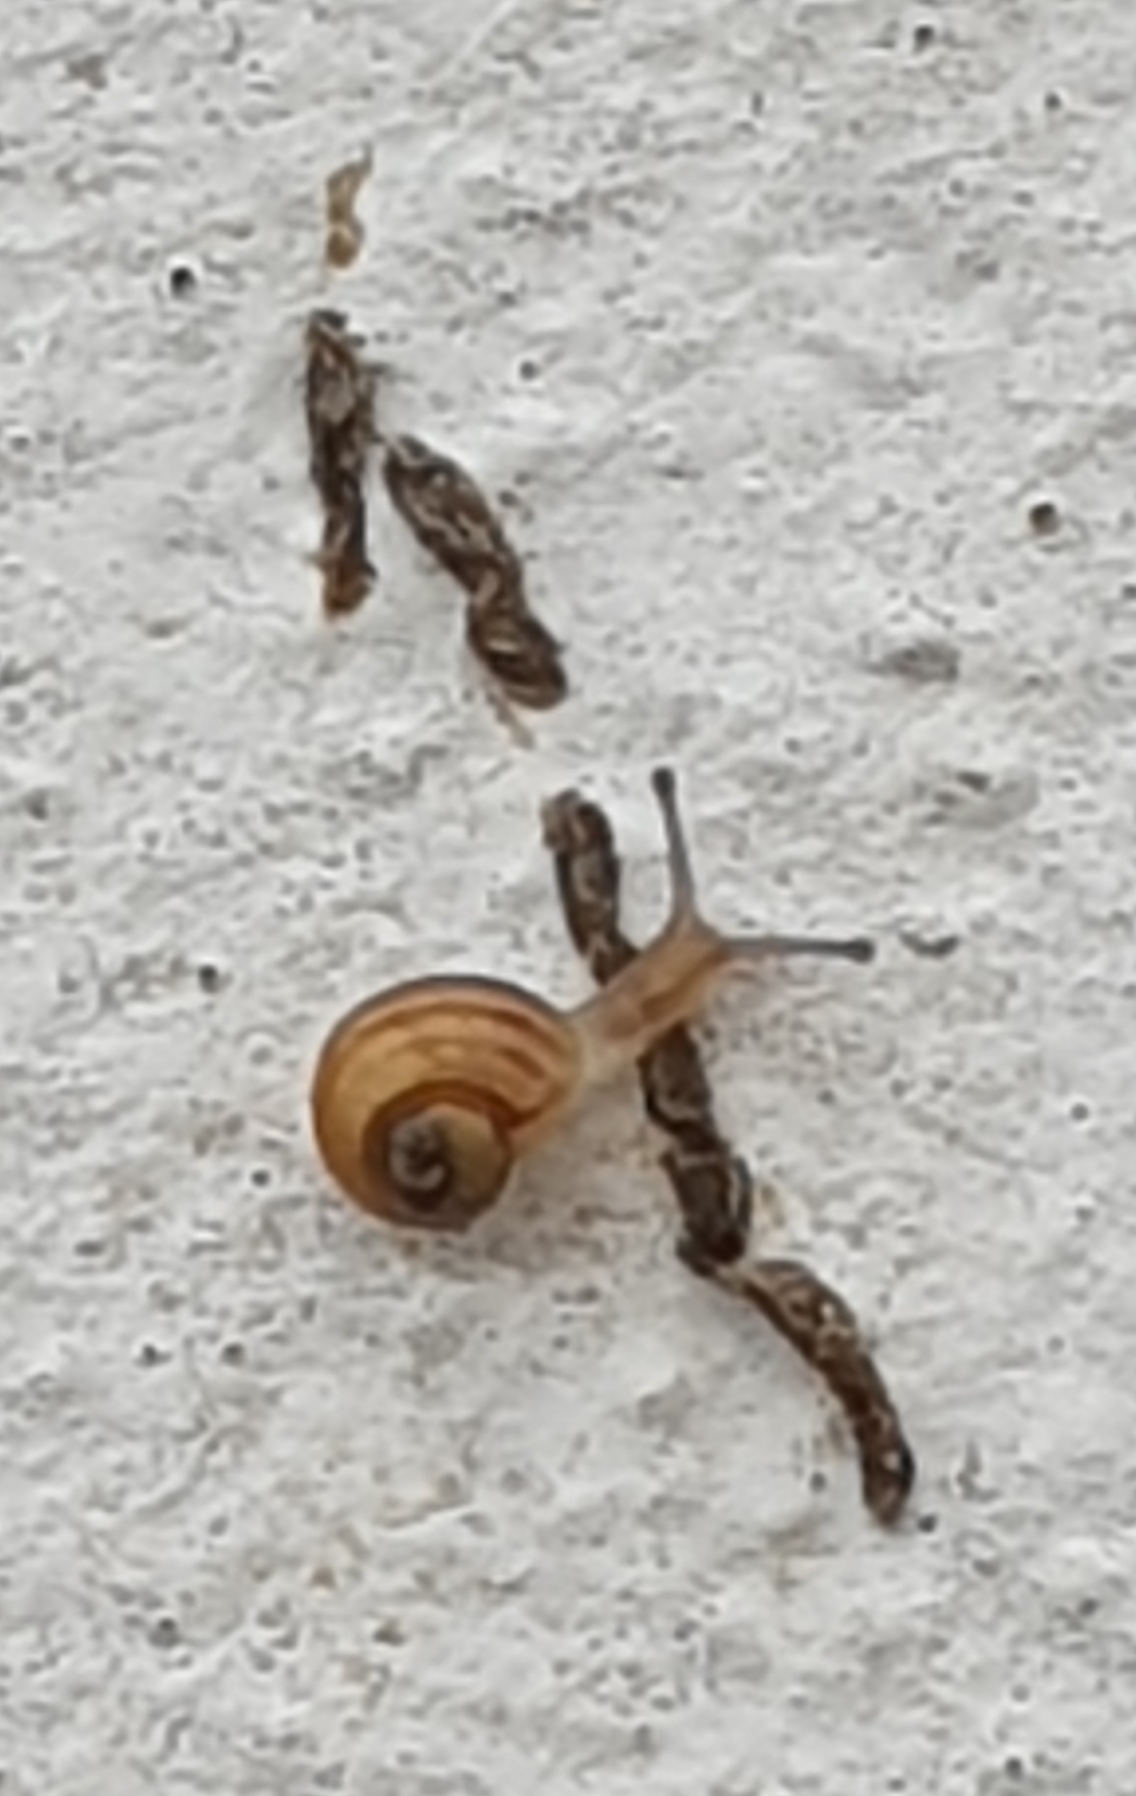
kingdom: Animalia
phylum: Mollusca
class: Gastropoda
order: Stylommatophora
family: Helicidae
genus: Theba
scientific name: Theba pisana
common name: White snail
